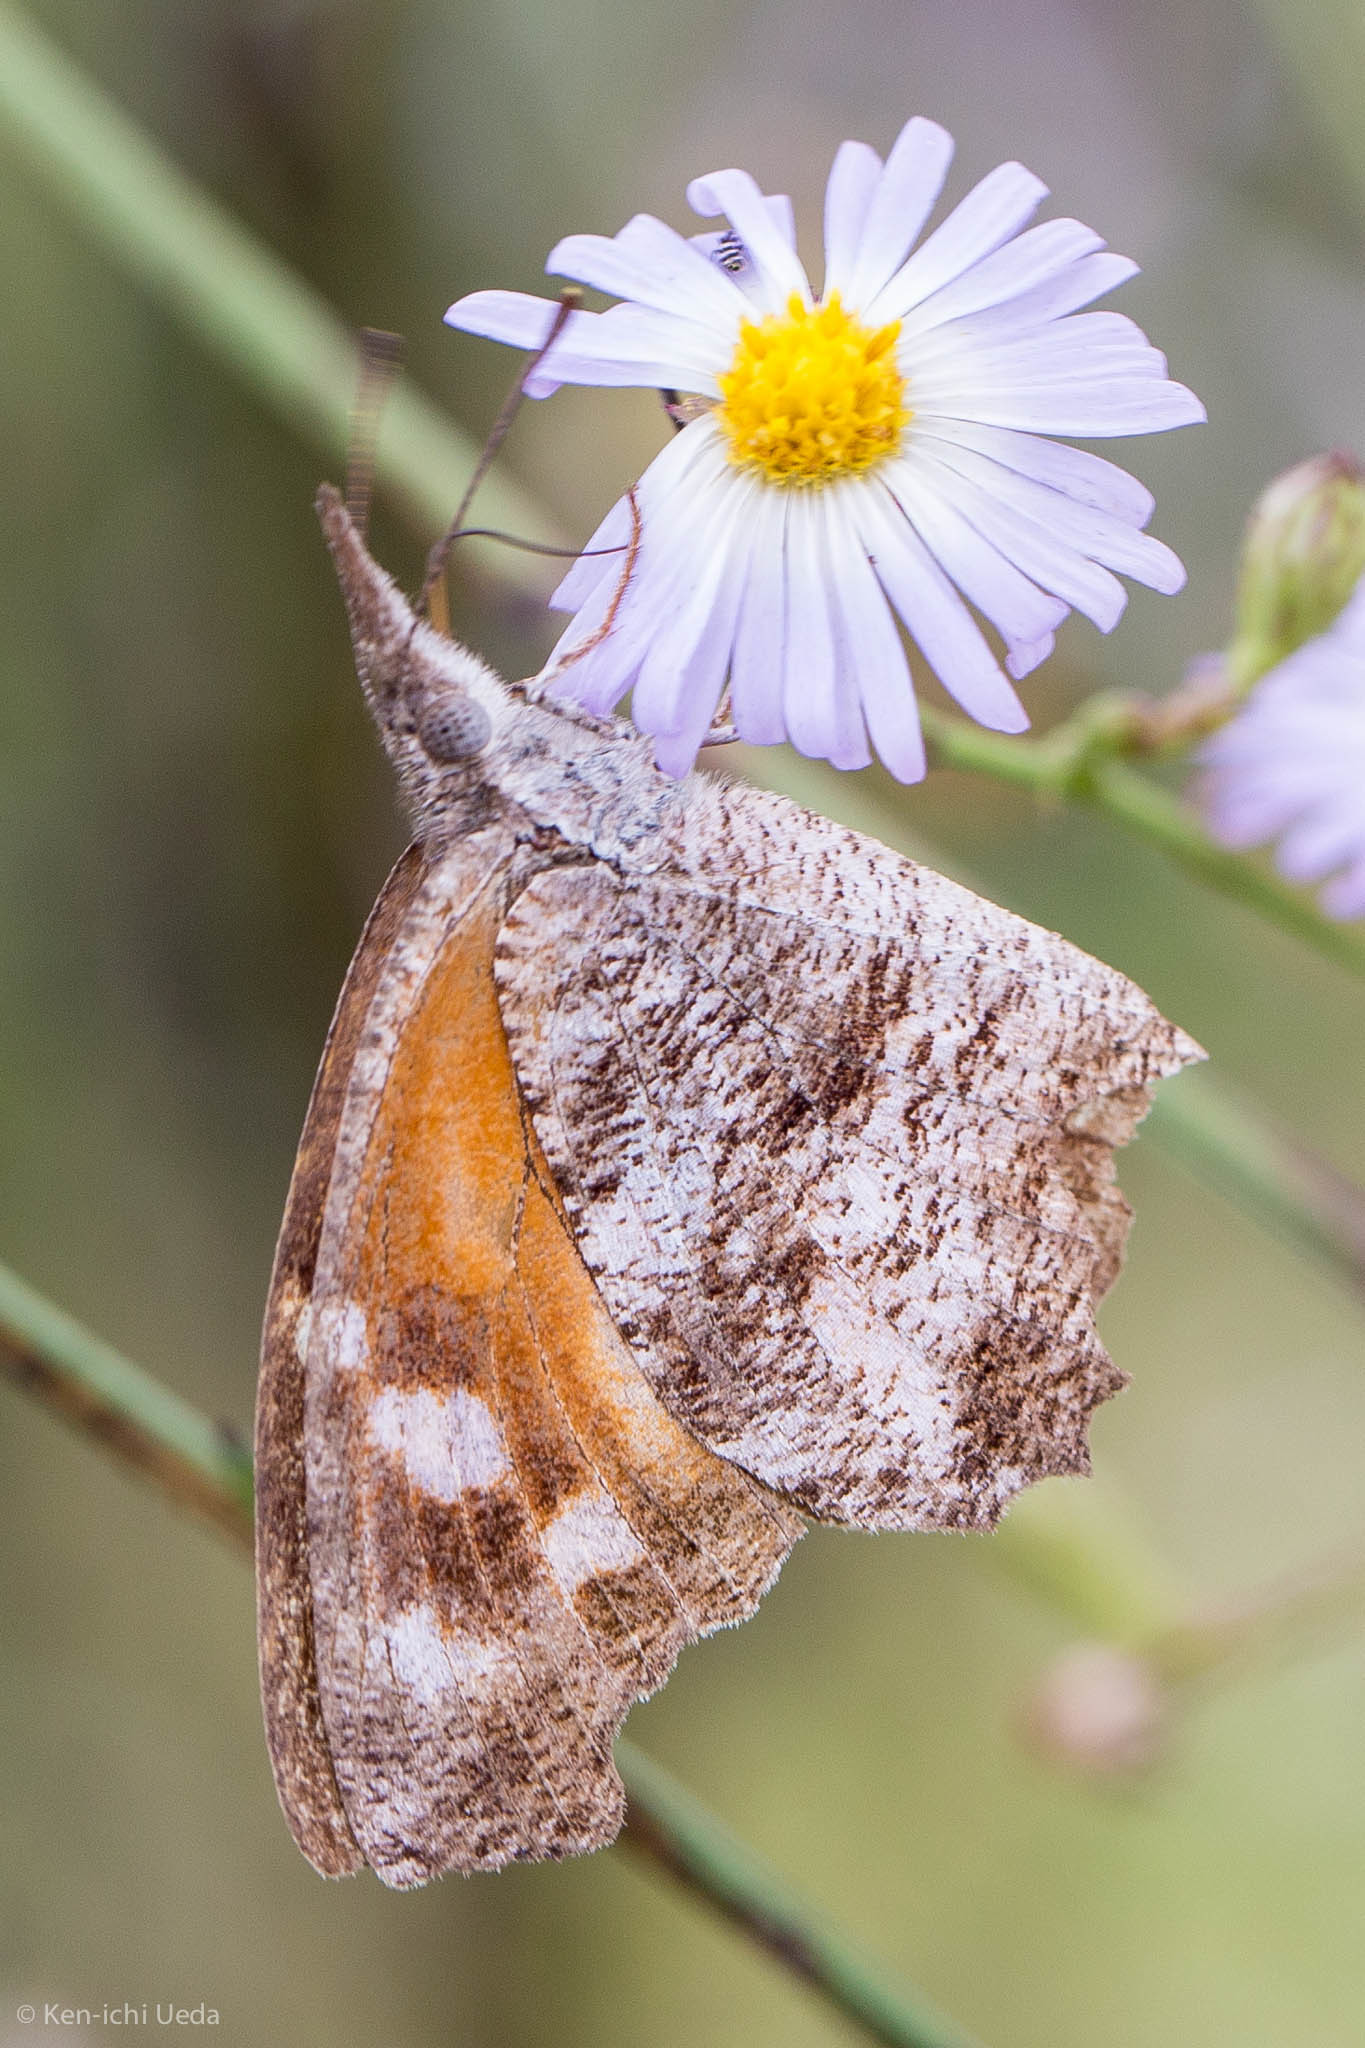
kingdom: Animalia
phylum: Arthropoda
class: Insecta
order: Lepidoptera
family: Nymphalidae
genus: Libytheana
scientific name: Libytheana carinenta
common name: American snout
